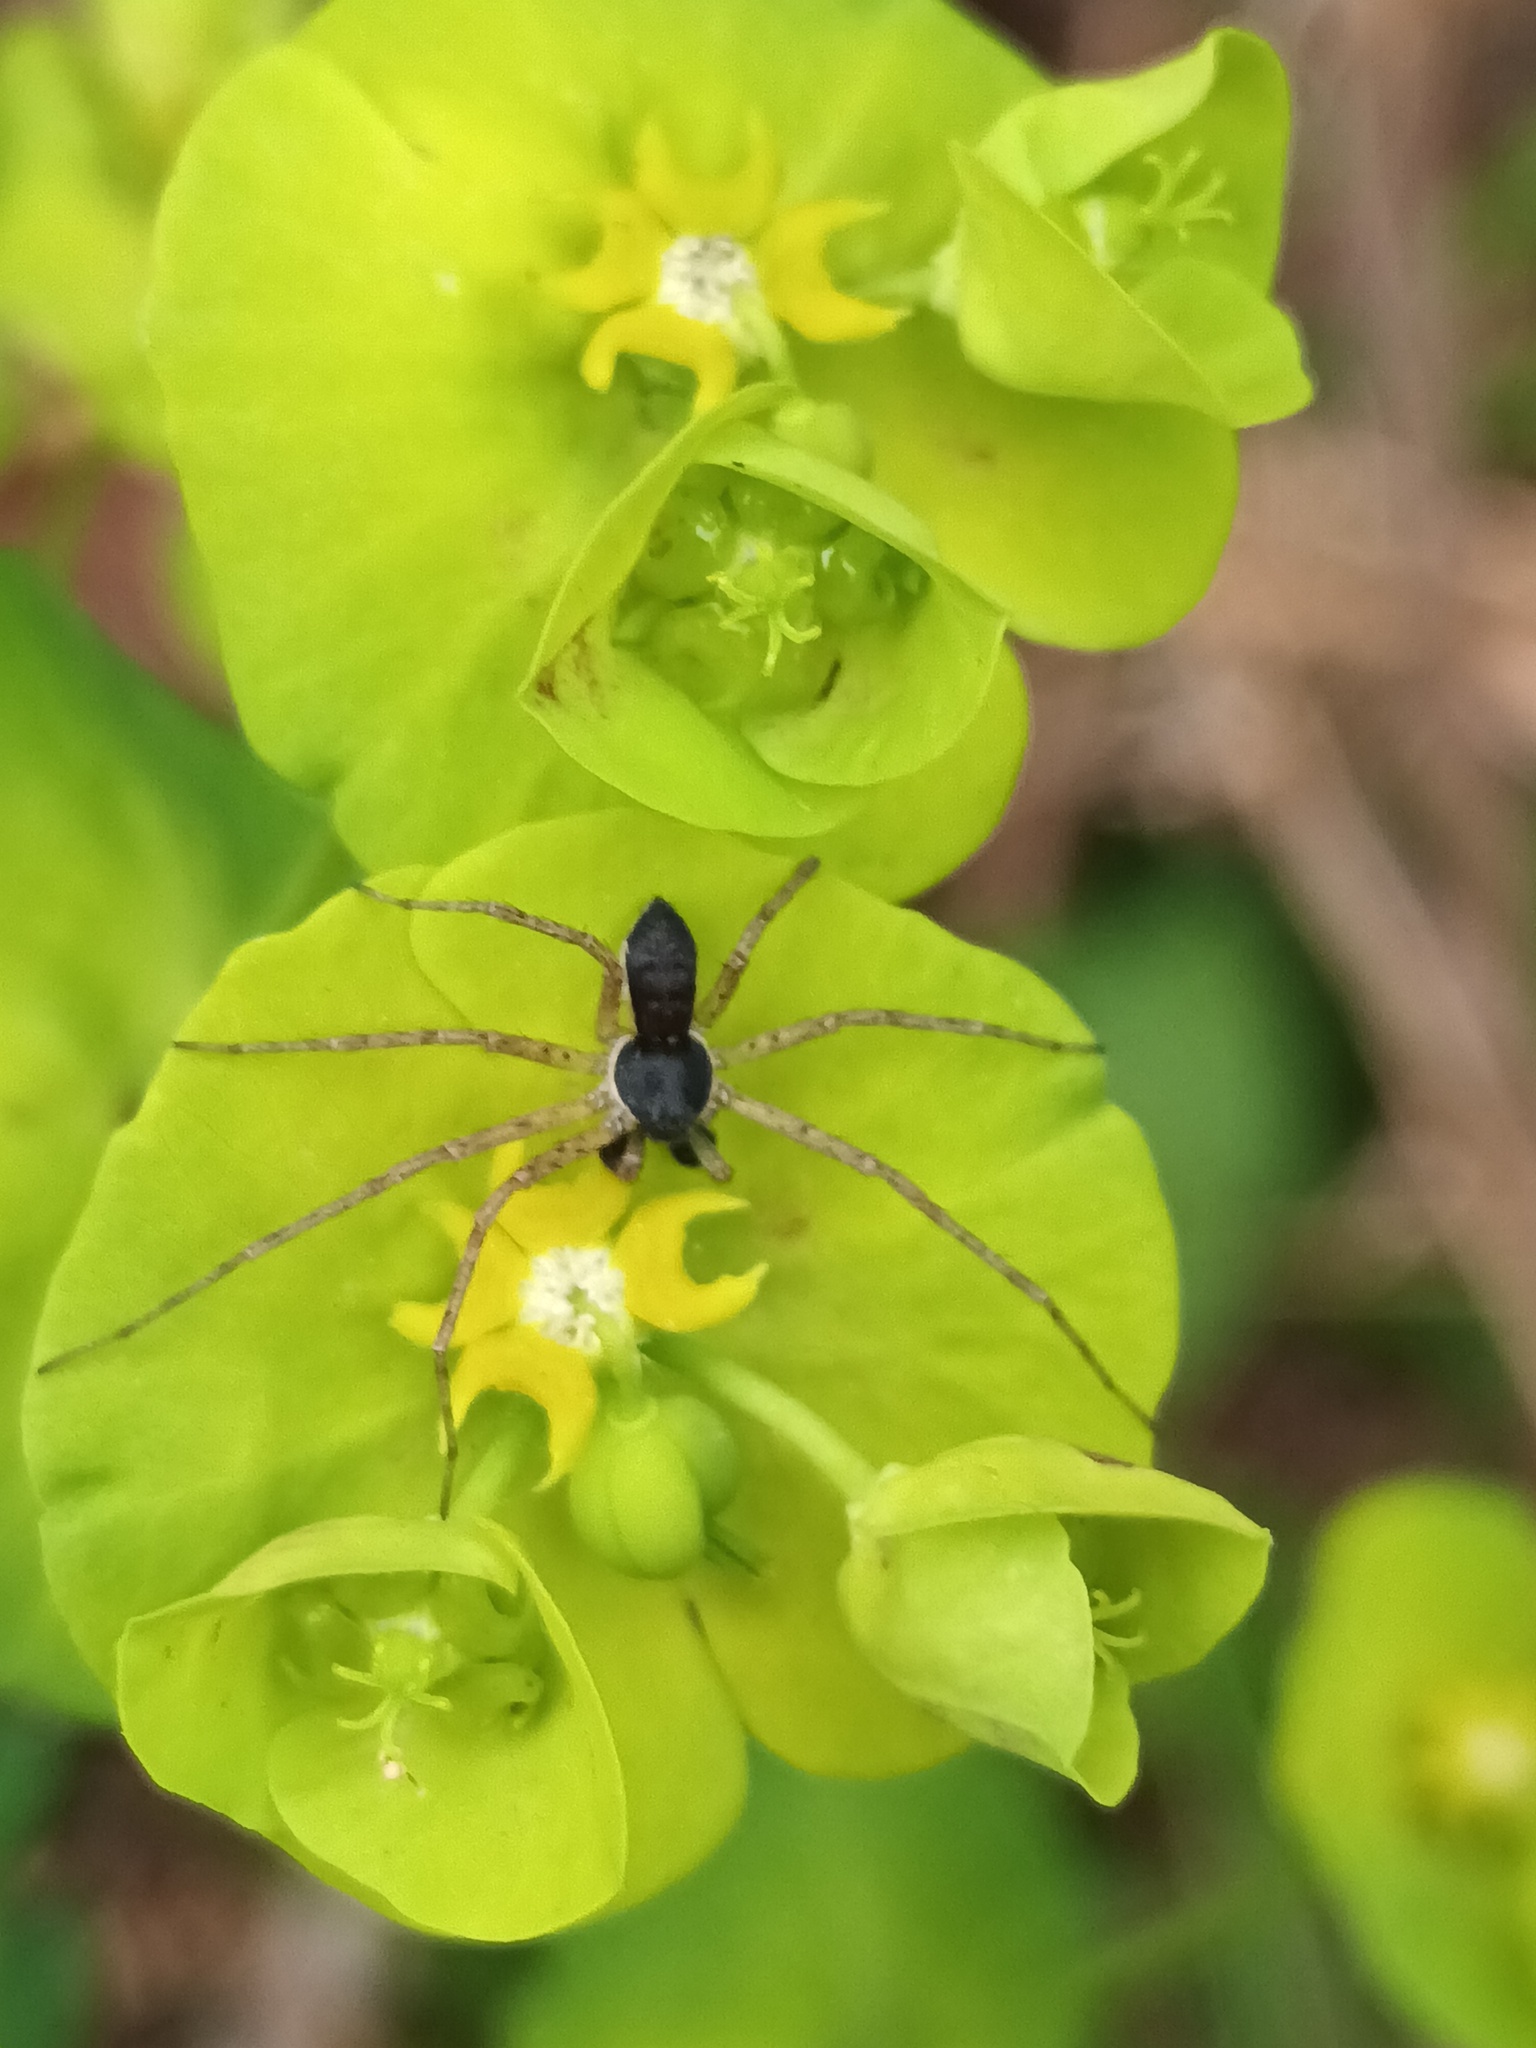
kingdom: Animalia
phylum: Arthropoda
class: Arachnida
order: Araneae
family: Philodromidae
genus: Philodromus
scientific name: Philodromus dispar
